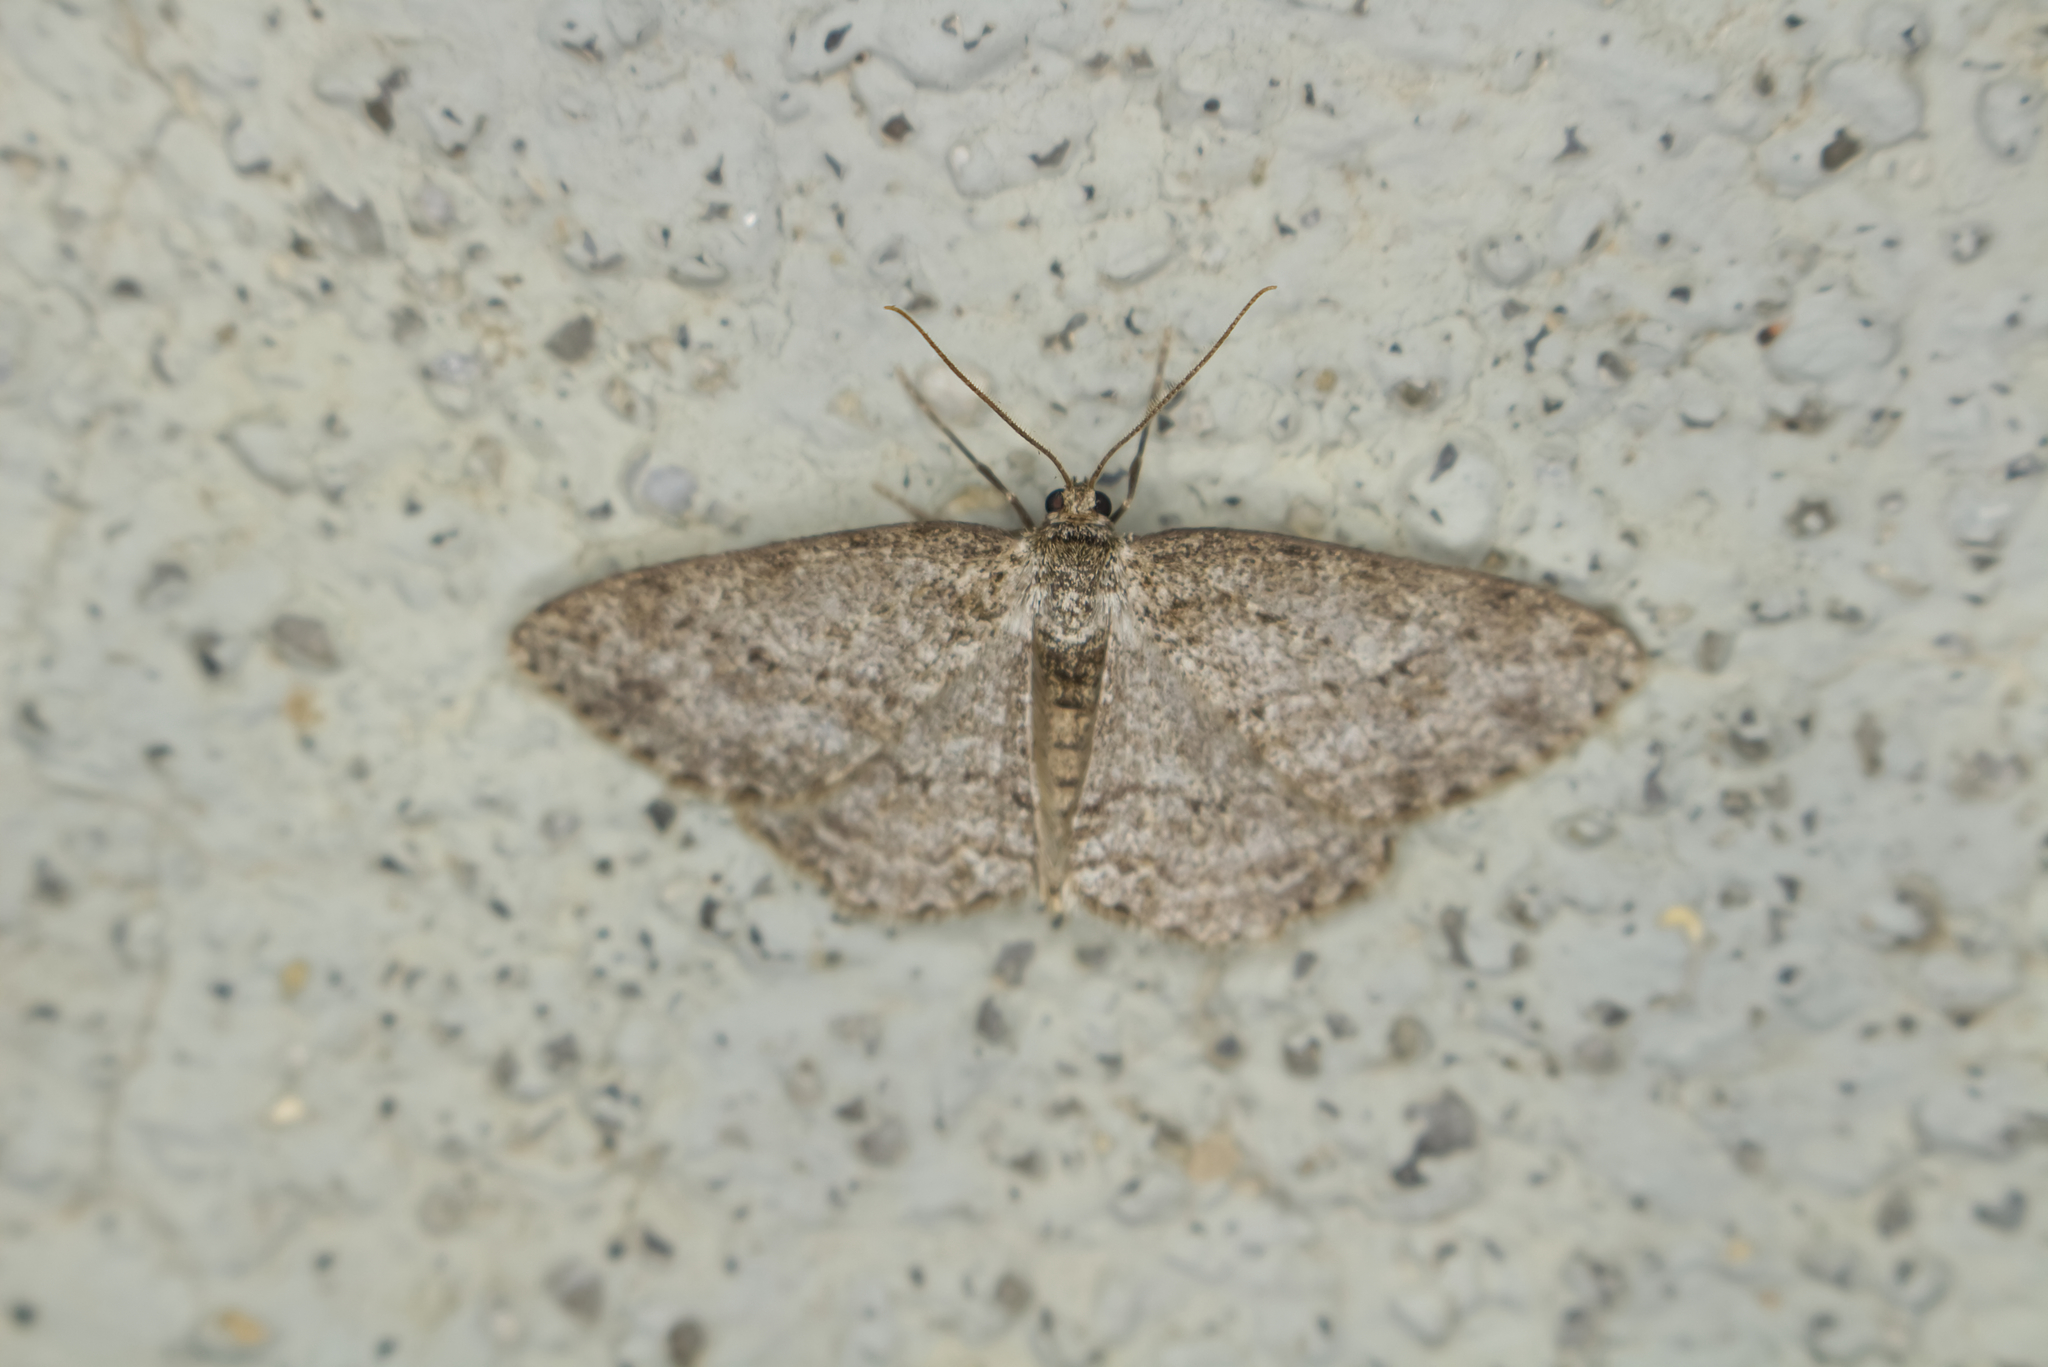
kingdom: Animalia
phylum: Arthropoda
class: Insecta
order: Lepidoptera
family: Geometridae
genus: Ectropis
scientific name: Ectropis crepuscularia
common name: Engrailed
